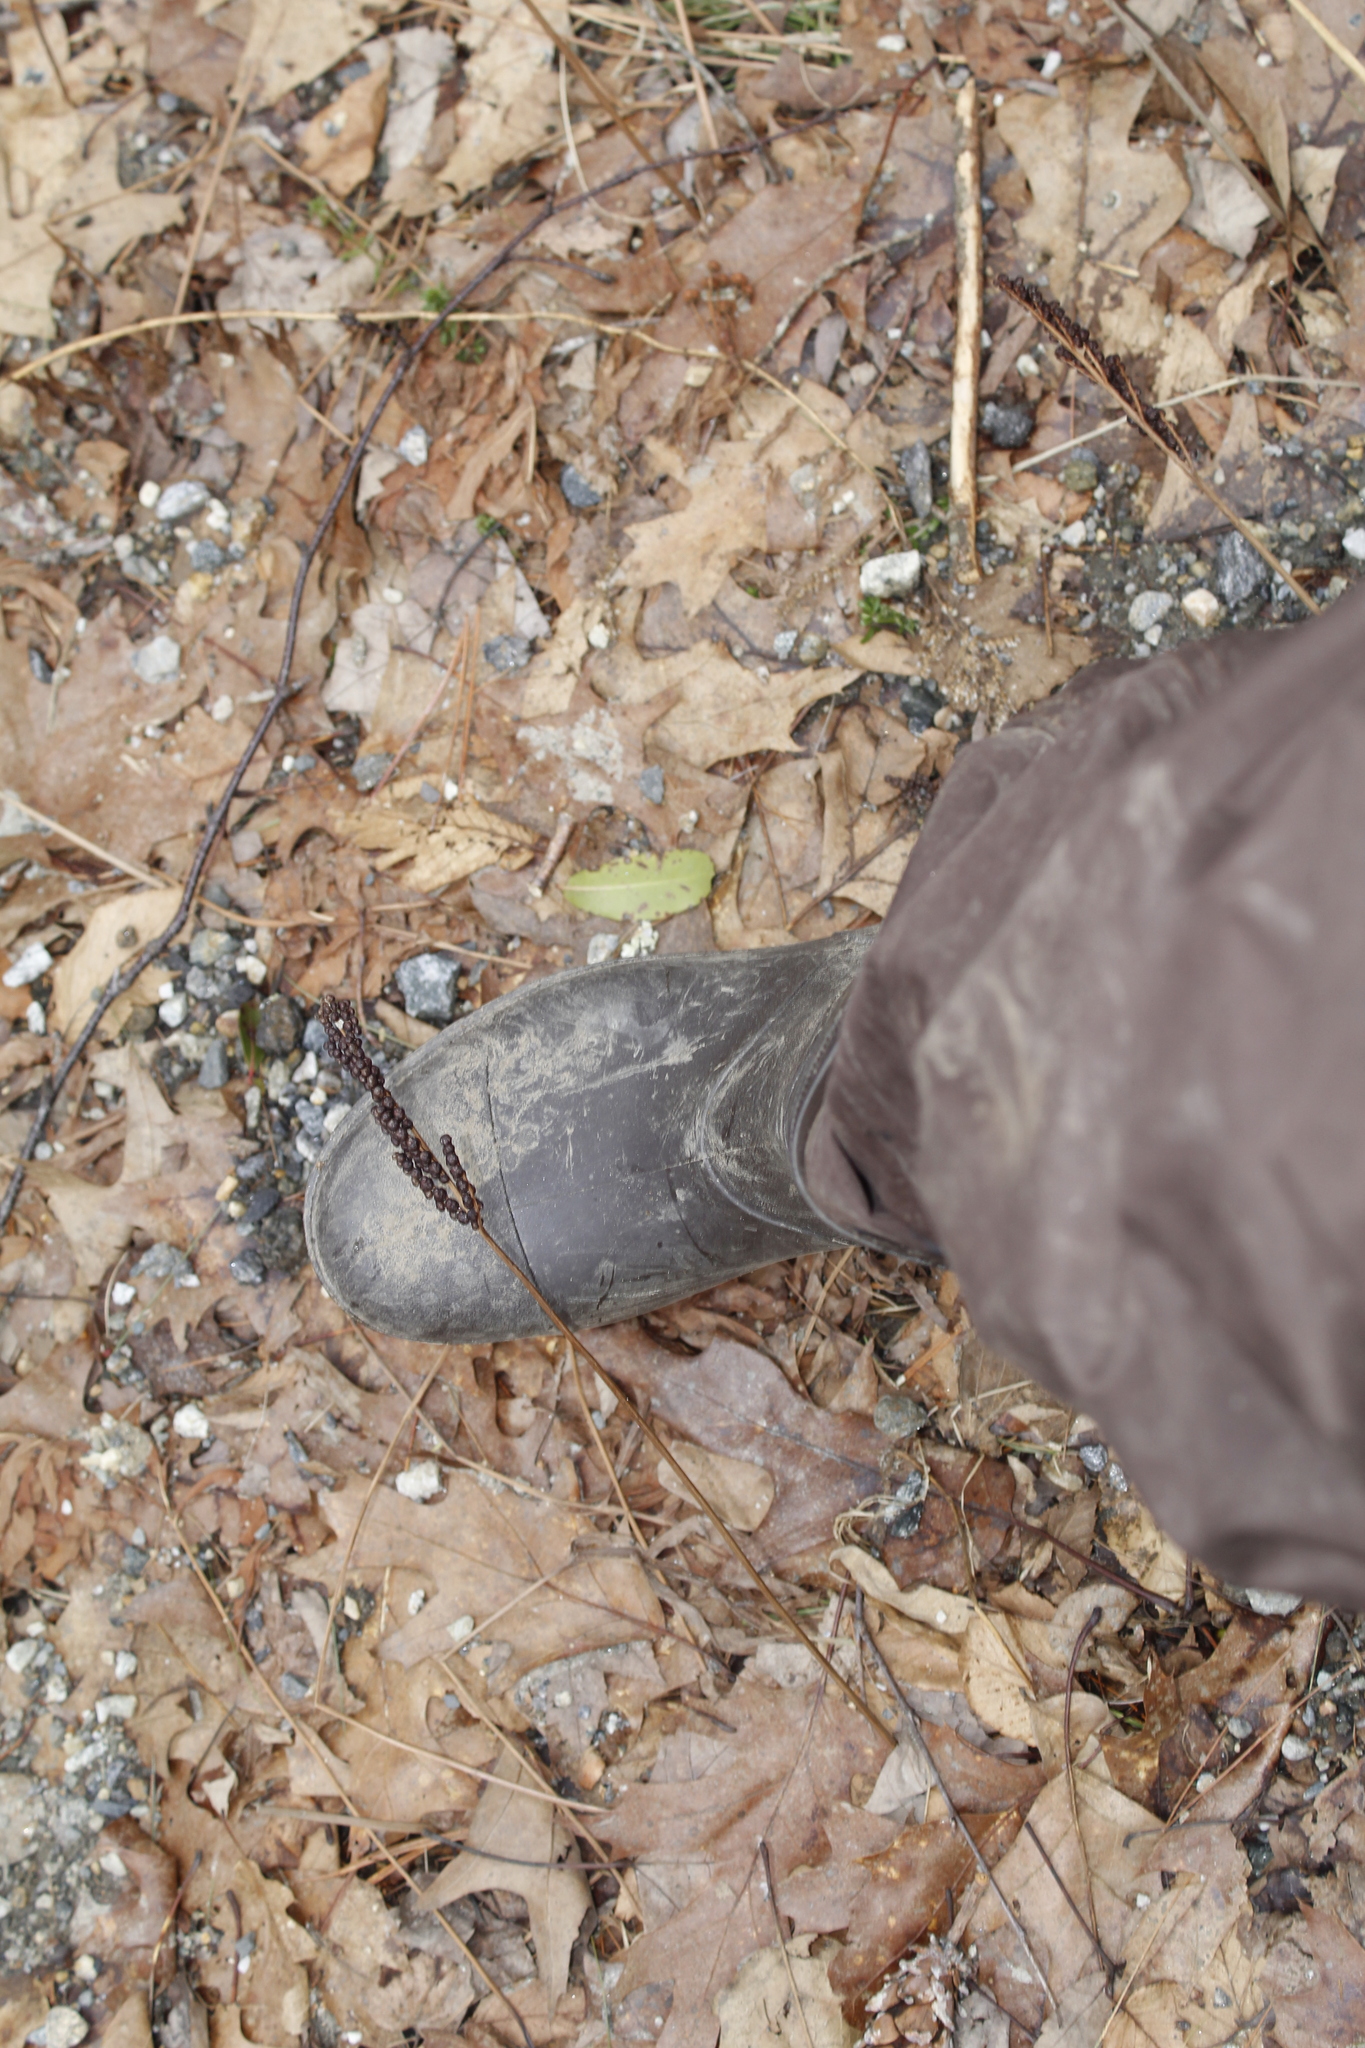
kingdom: Plantae
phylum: Tracheophyta
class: Polypodiopsida
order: Polypodiales
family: Onocleaceae
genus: Onoclea
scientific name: Onoclea sensibilis
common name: Sensitive fern
